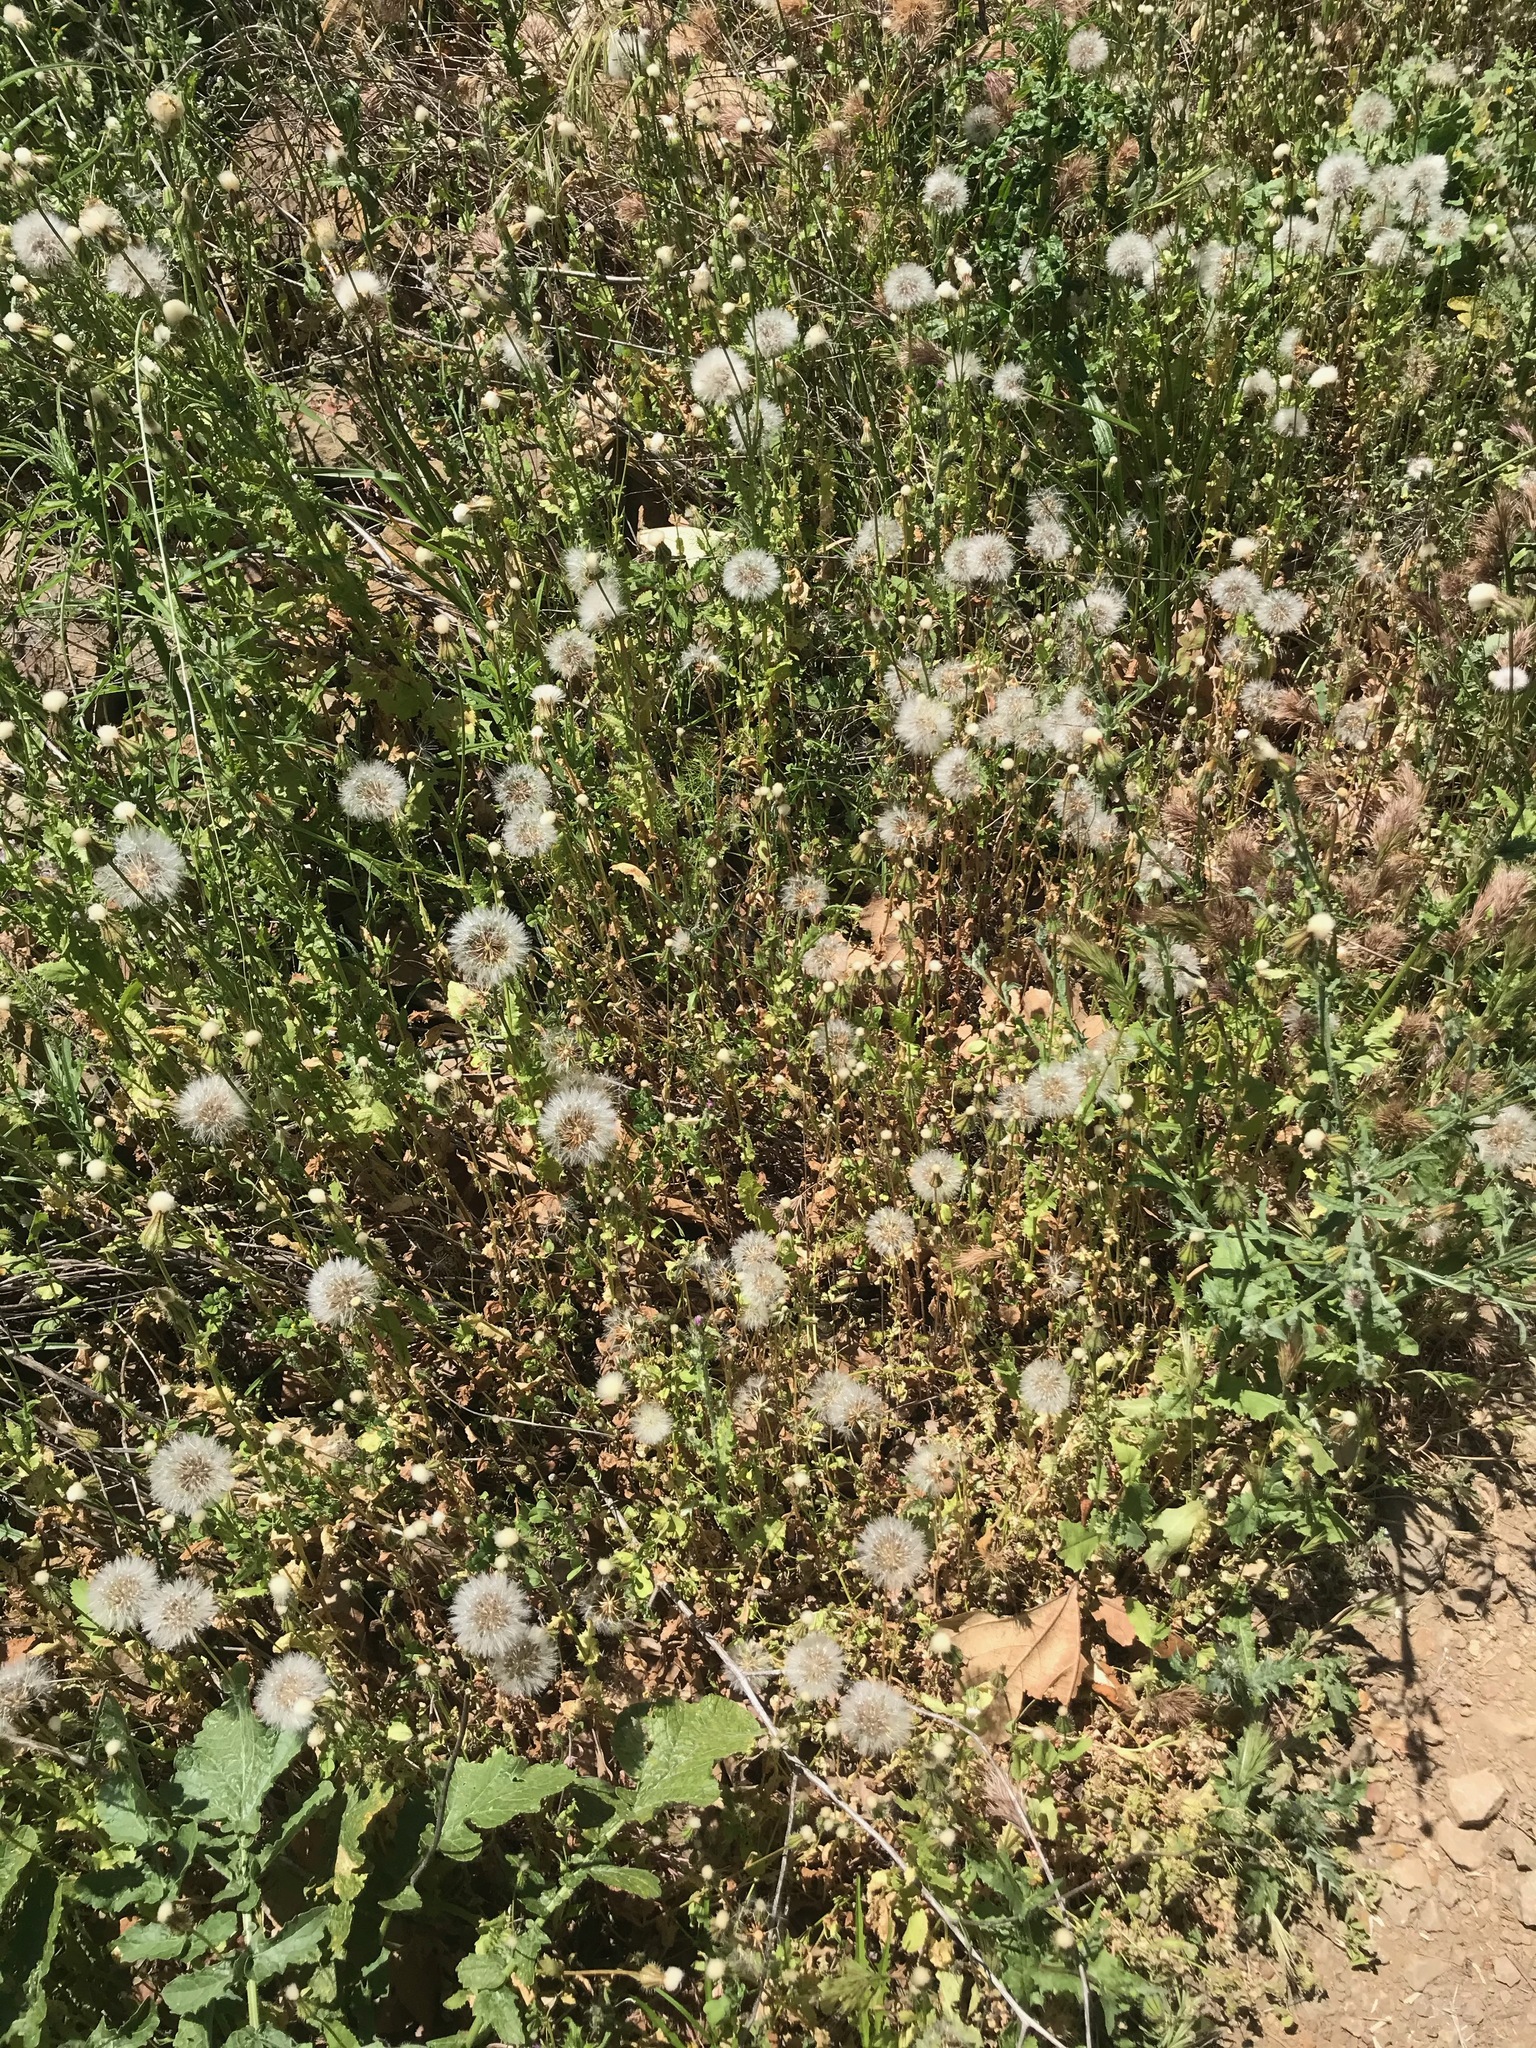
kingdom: Plantae
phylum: Tracheophyta
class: Magnoliopsida
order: Asterales
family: Asteraceae
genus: Urospermum
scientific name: Urospermum picroides
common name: False hawkbit
